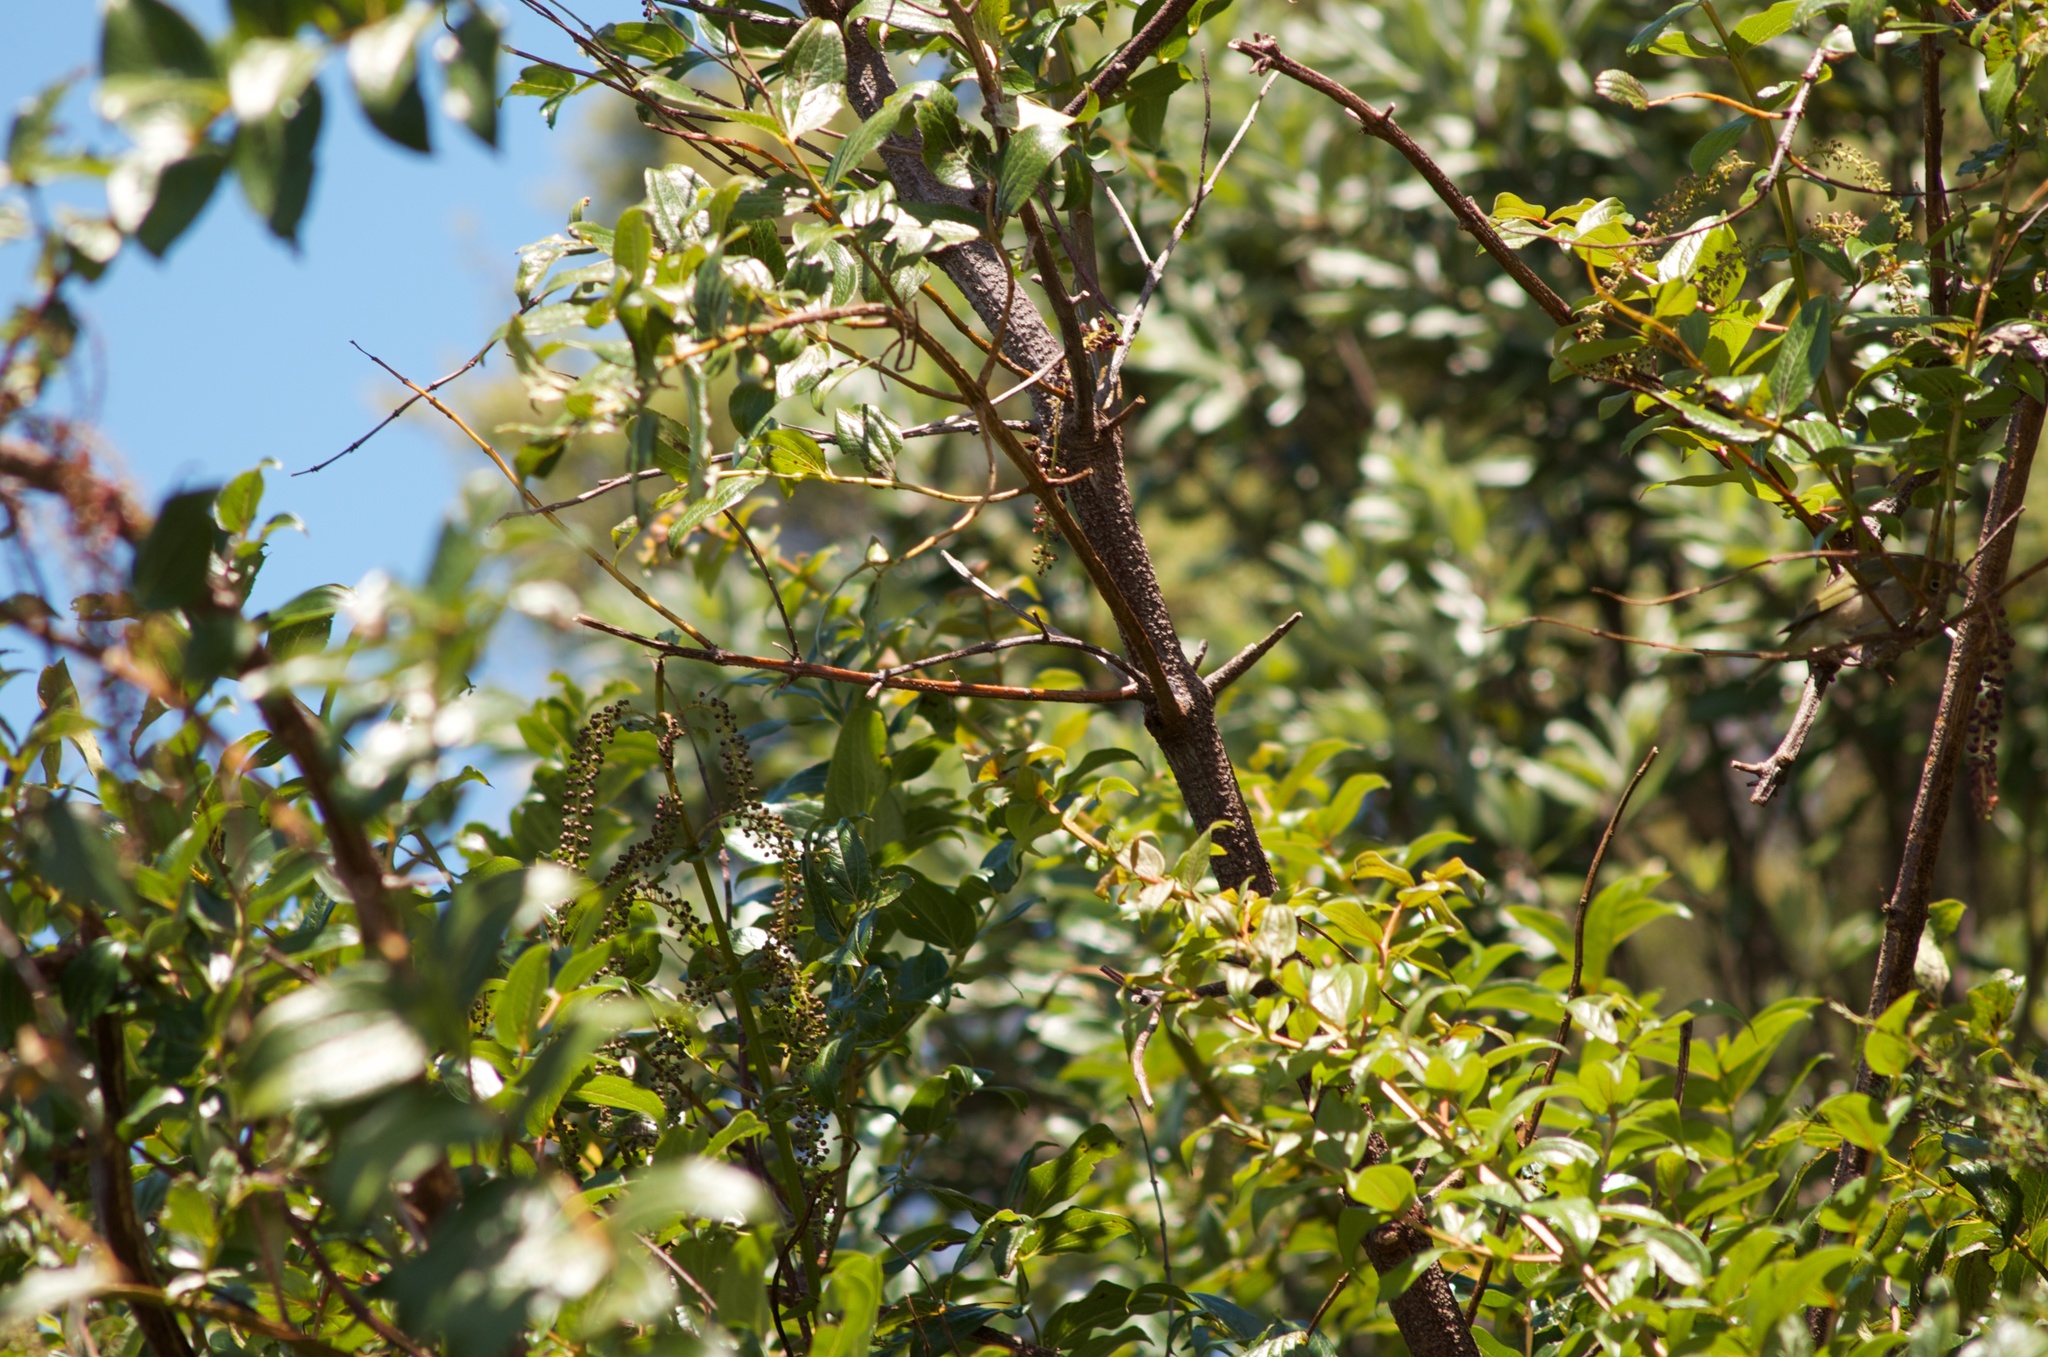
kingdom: Plantae
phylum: Tracheophyta
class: Magnoliopsida
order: Cucurbitales
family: Coriariaceae
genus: Coriaria
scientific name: Coriaria arborea
